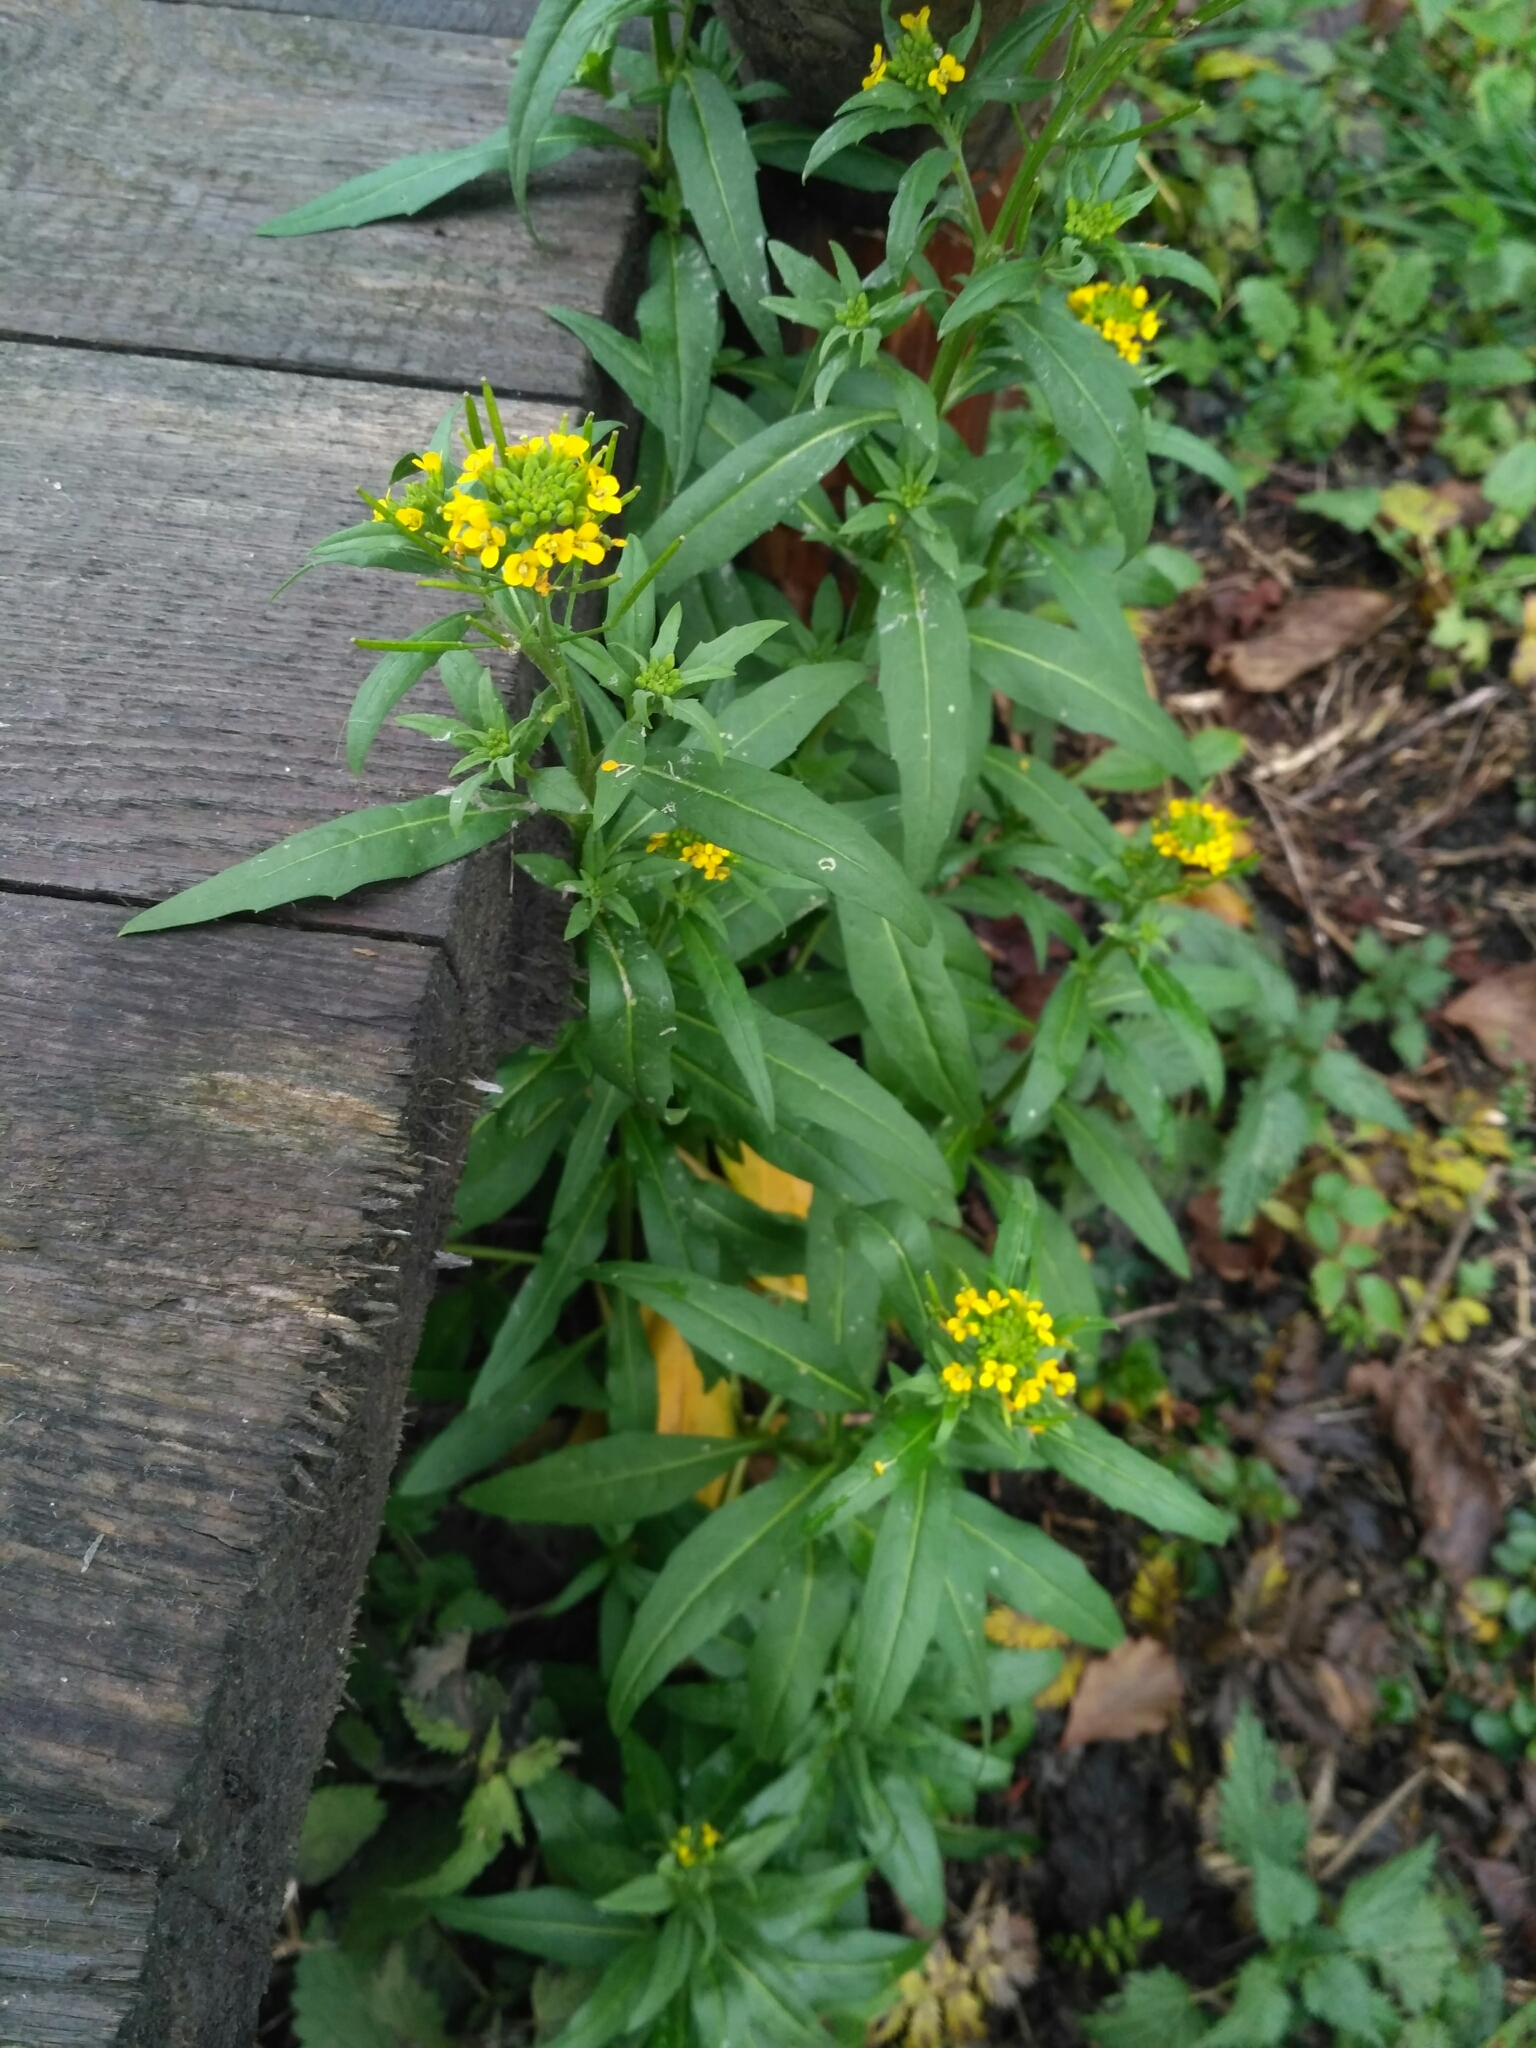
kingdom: Plantae
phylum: Tracheophyta
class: Magnoliopsida
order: Brassicales
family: Brassicaceae
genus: Erysimum
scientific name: Erysimum cheiranthoides
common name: Treacle mustard
